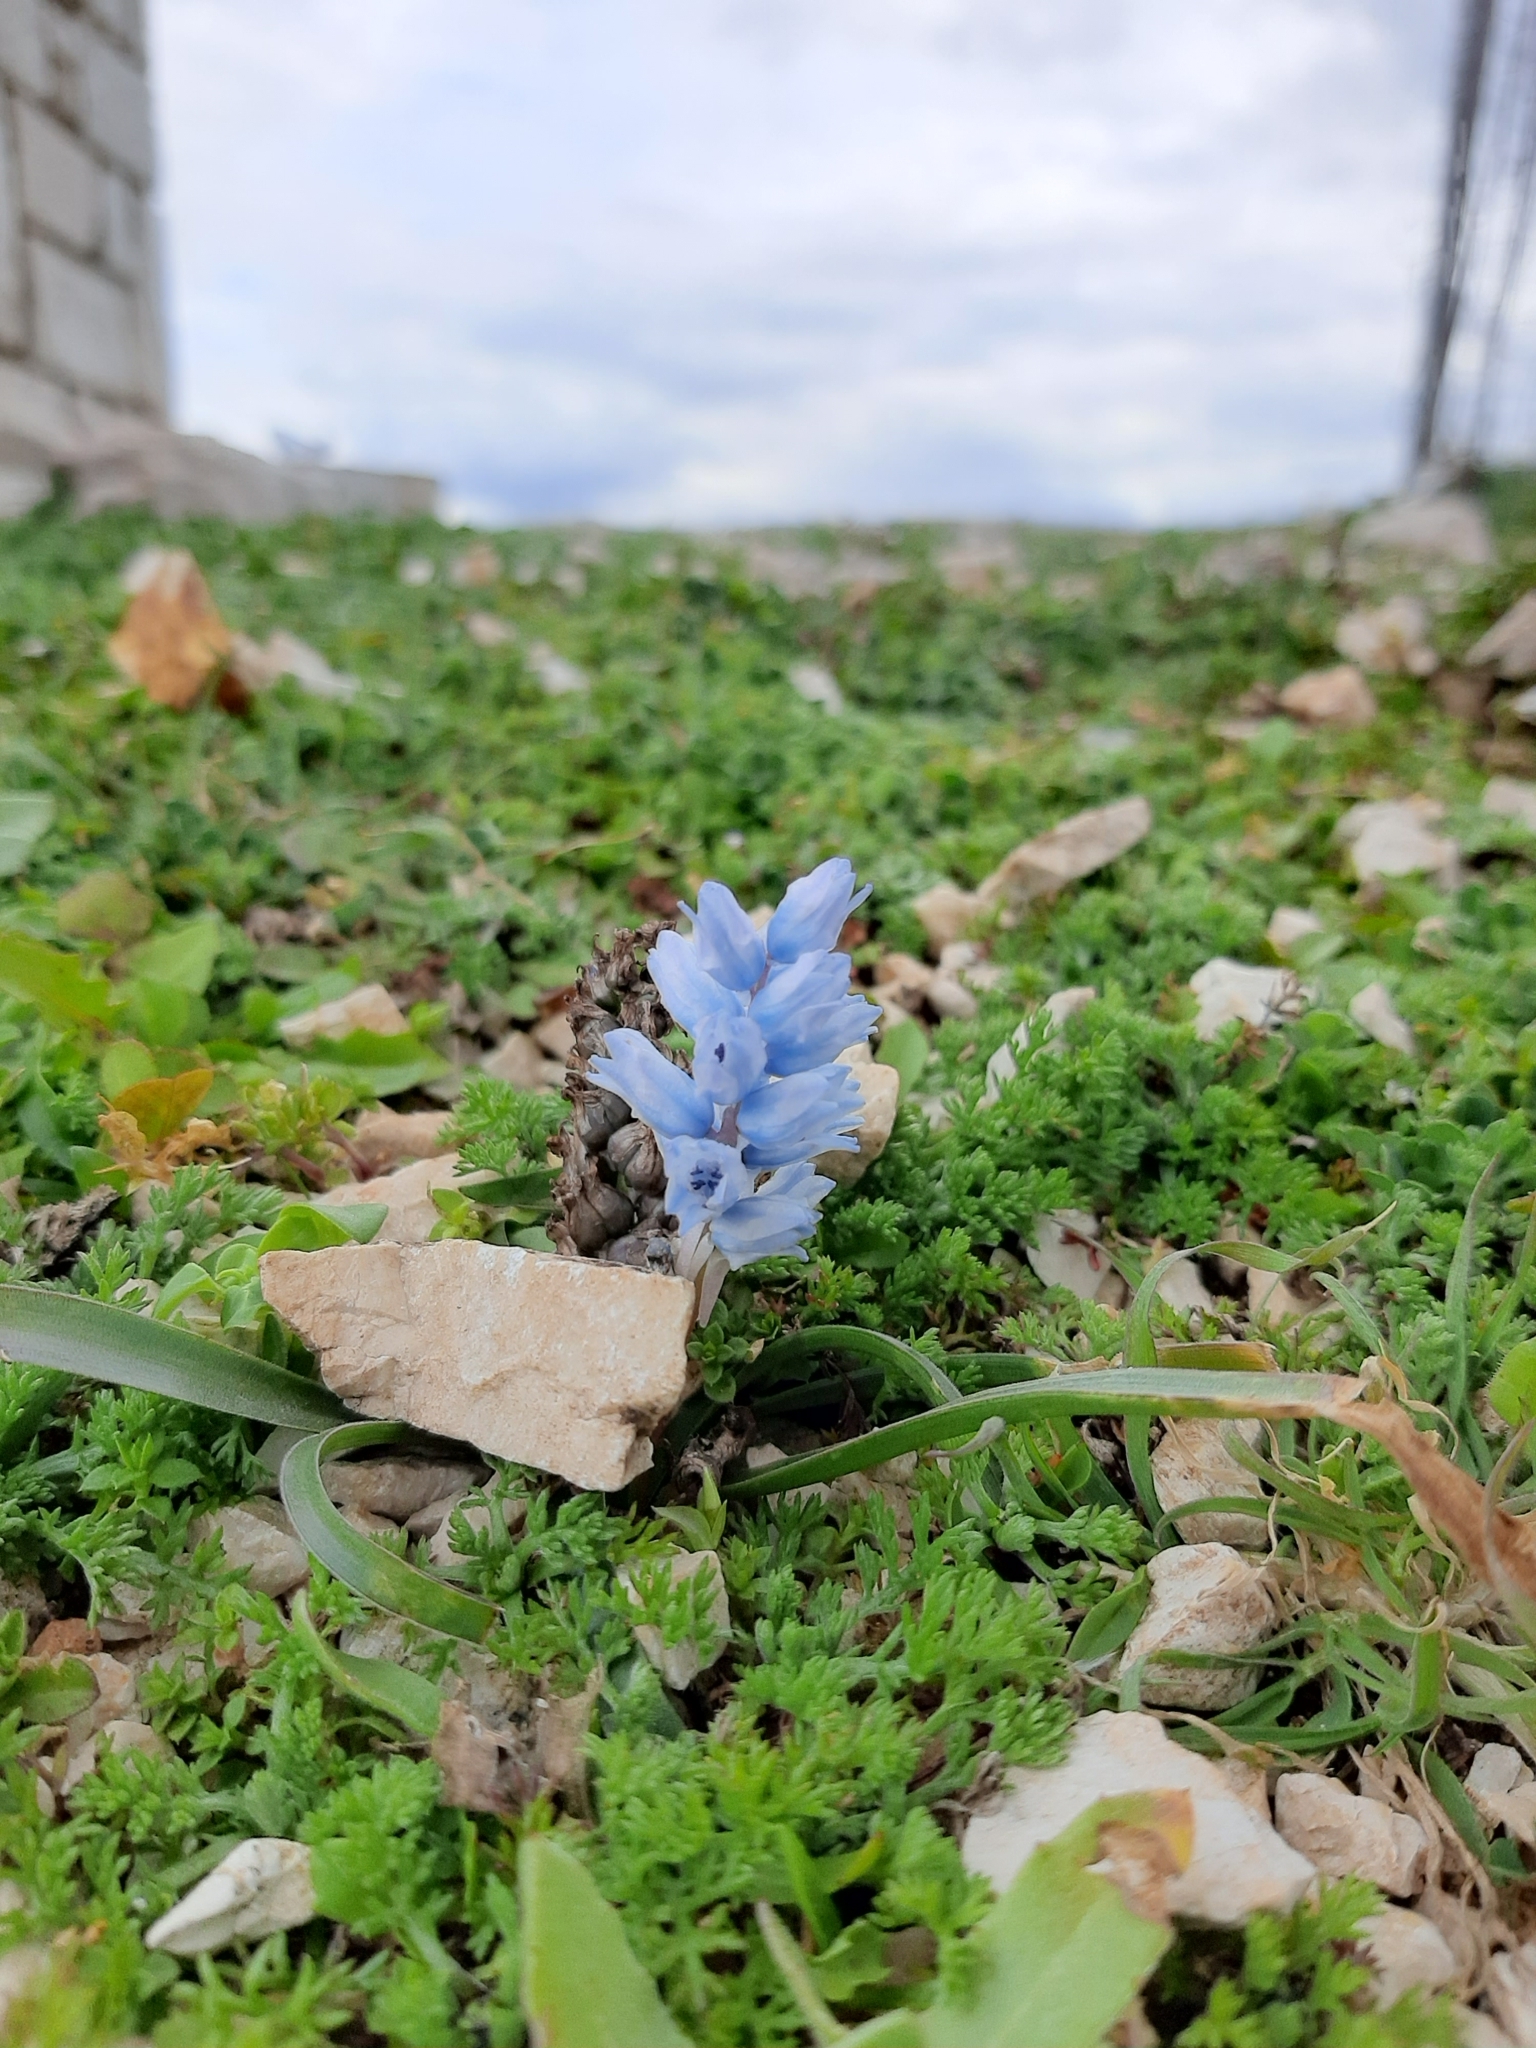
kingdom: Plantae
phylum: Tracheophyta
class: Liliopsida
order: Asparagales
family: Asparagaceae
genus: Bellevalia
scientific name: Bellevalia hyacinthoides
